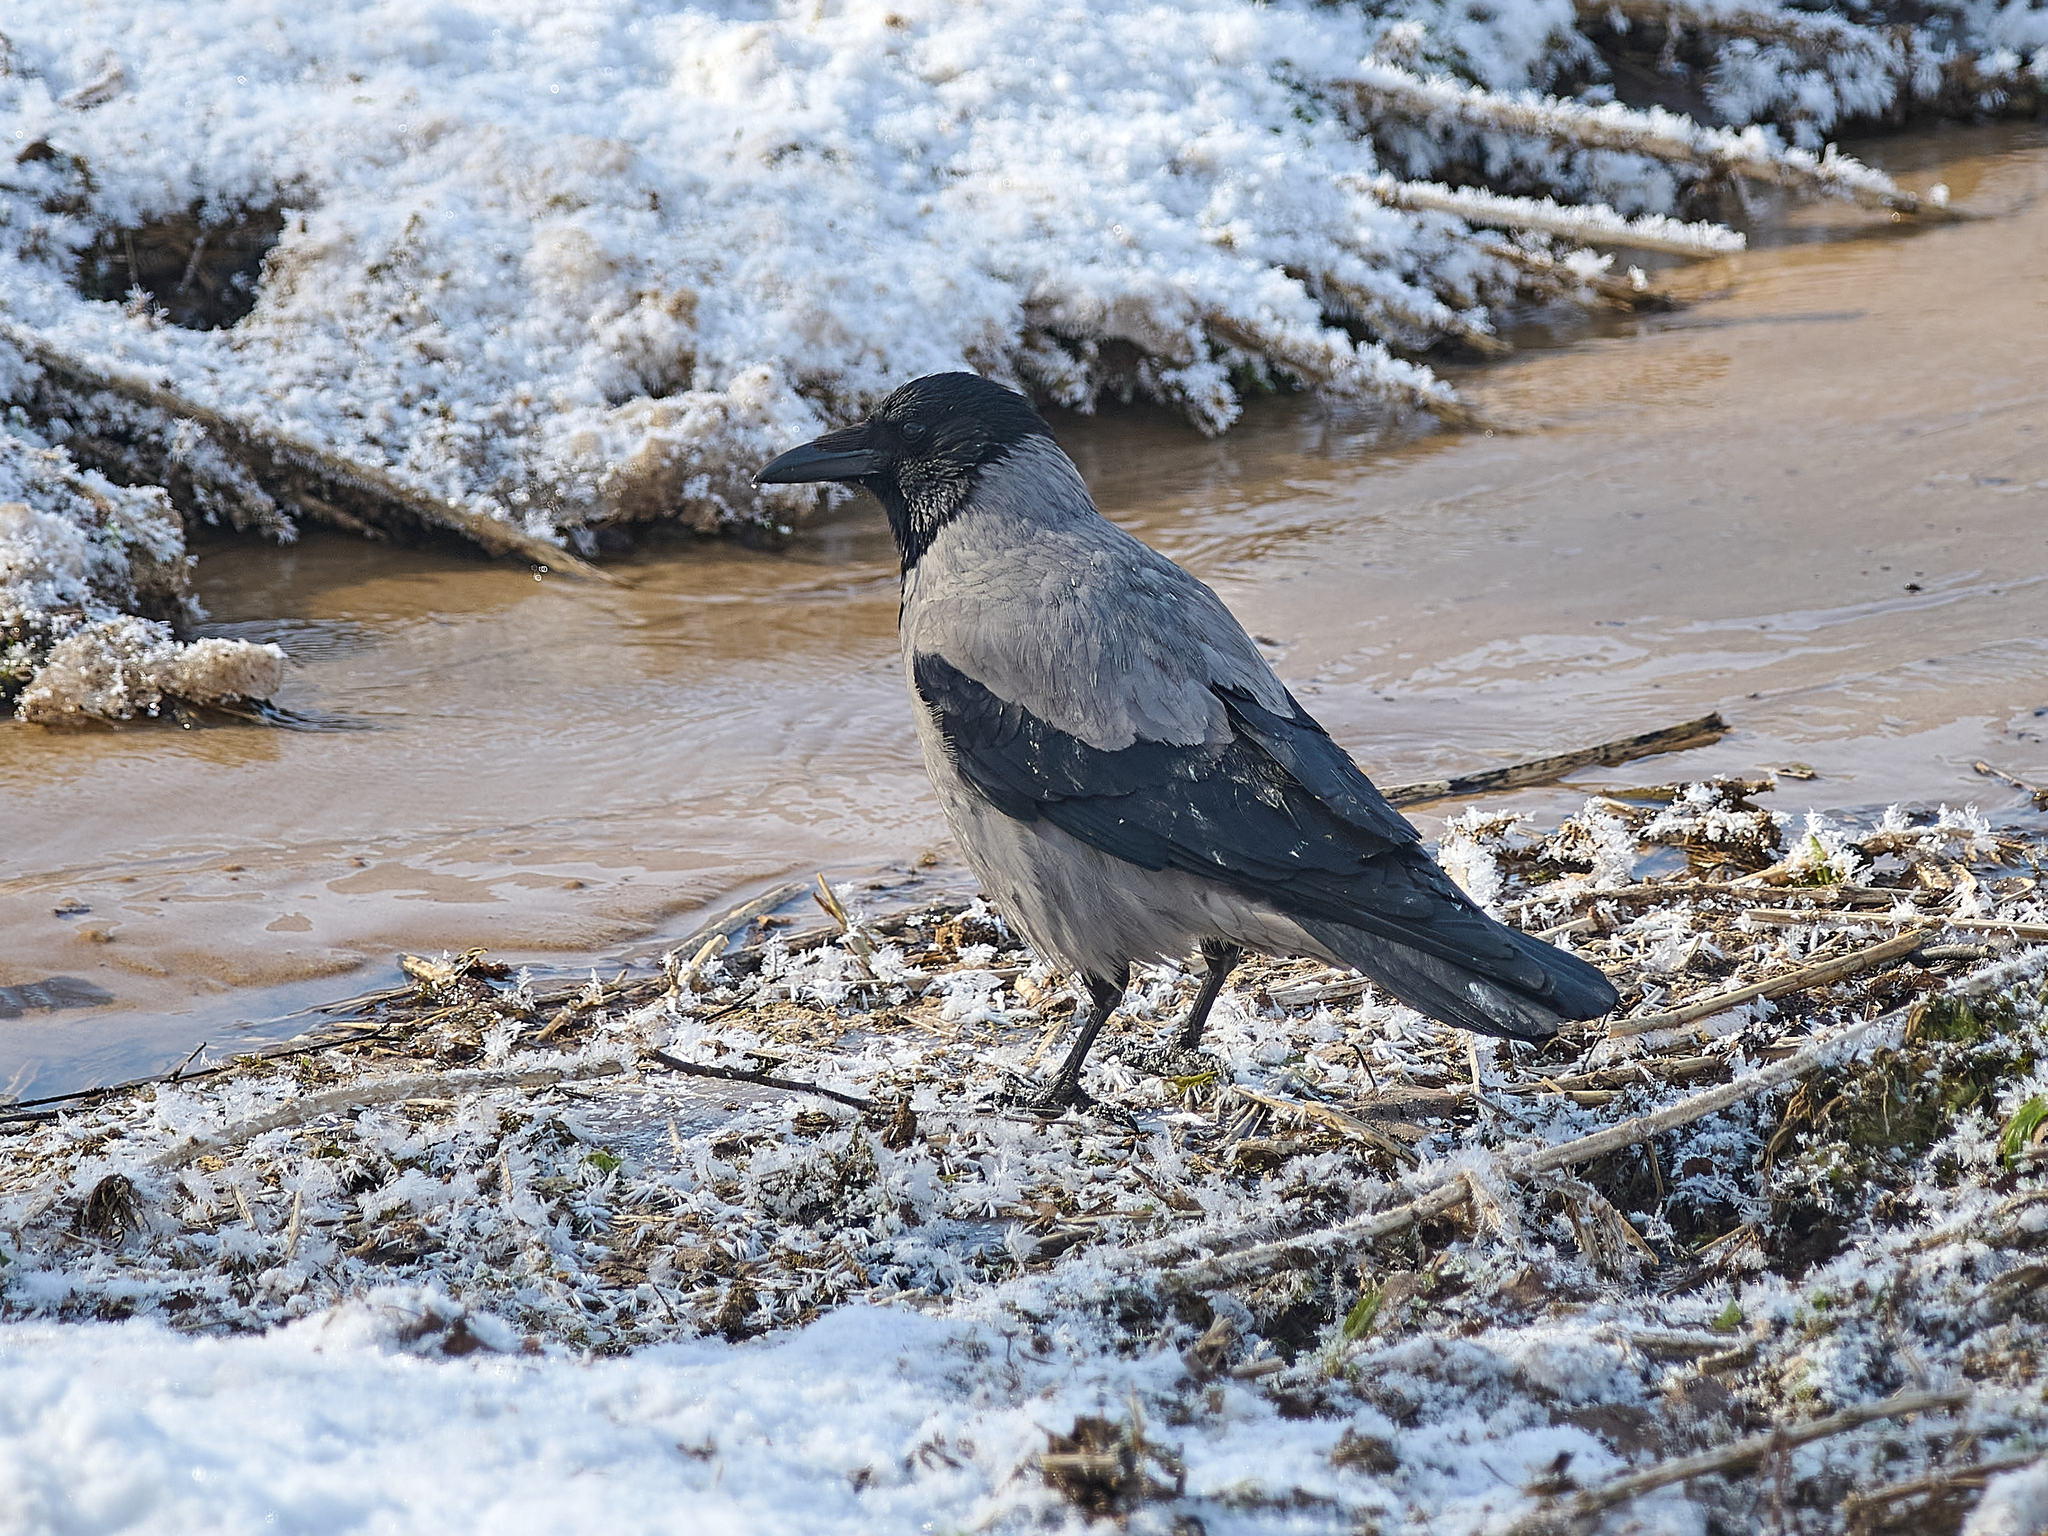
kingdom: Animalia
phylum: Chordata
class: Aves
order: Passeriformes
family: Corvidae
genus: Corvus
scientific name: Corvus cornix
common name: Hooded crow
